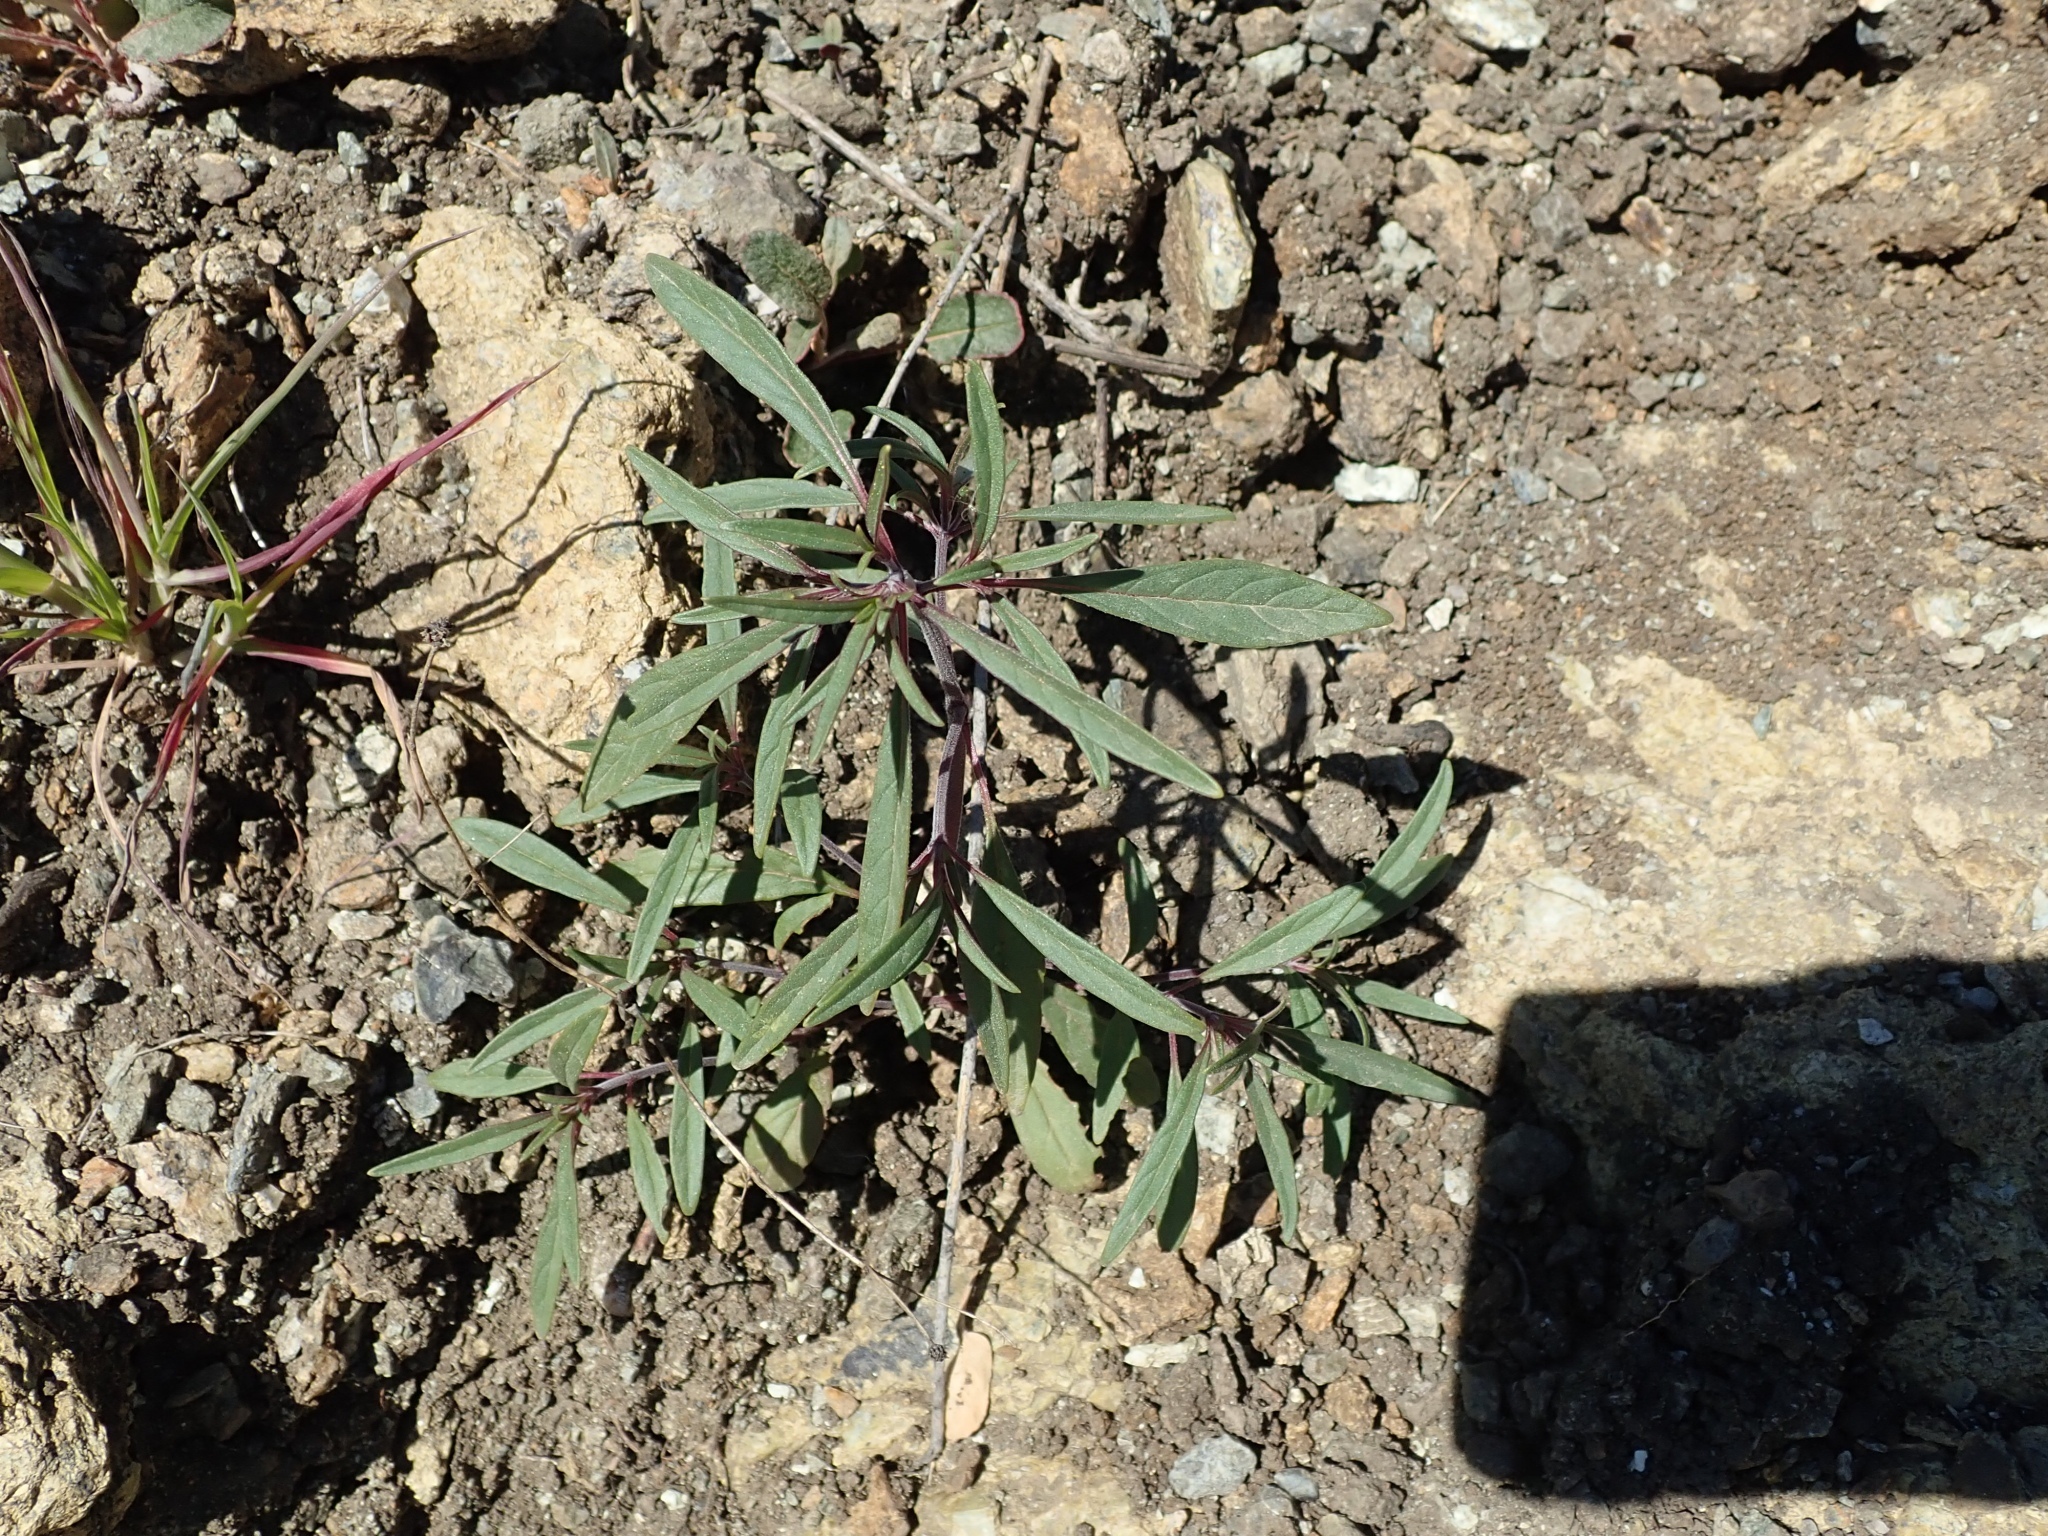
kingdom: Plantae
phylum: Tracheophyta
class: Magnoliopsida
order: Lamiales
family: Lamiaceae
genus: Monardella
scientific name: Monardella douglasii
